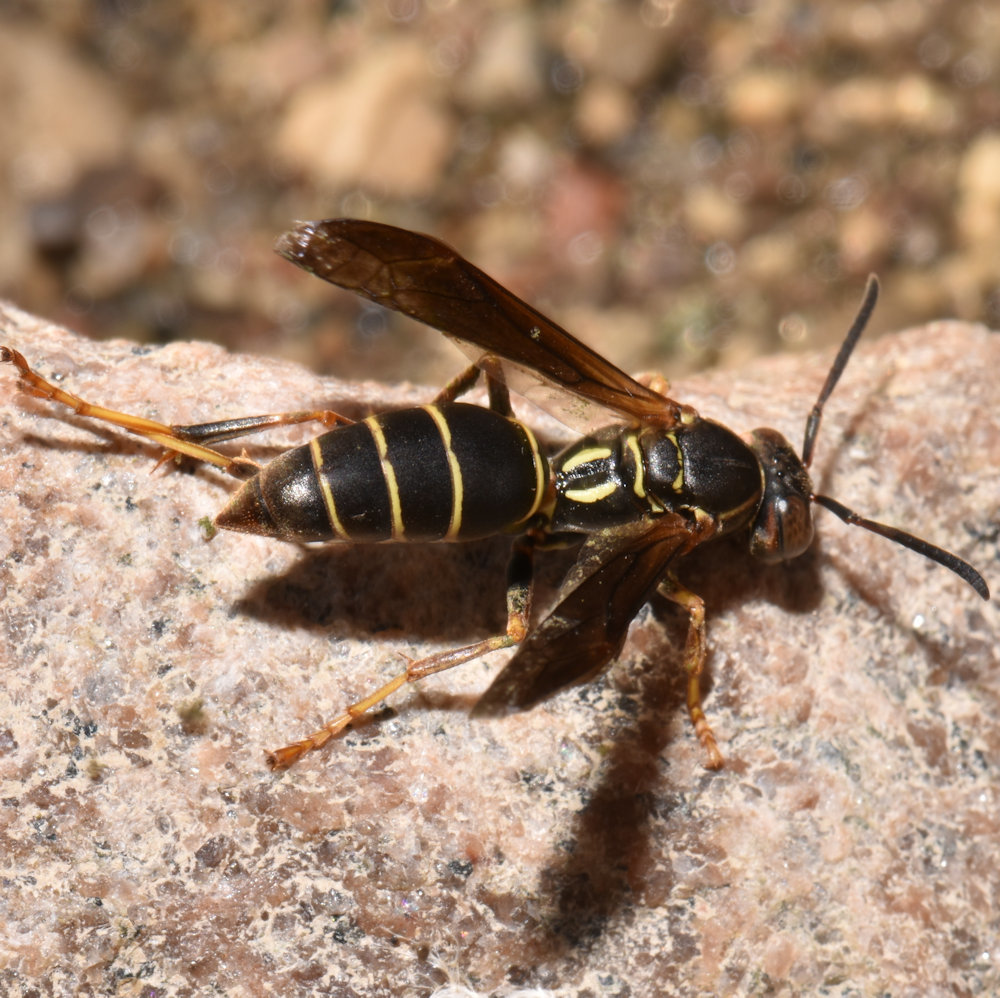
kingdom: Animalia
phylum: Arthropoda
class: Insecta
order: Hymenoptera
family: Eumenidae
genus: Polistes
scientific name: Polistes fuscatus
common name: Dark paper wasp
